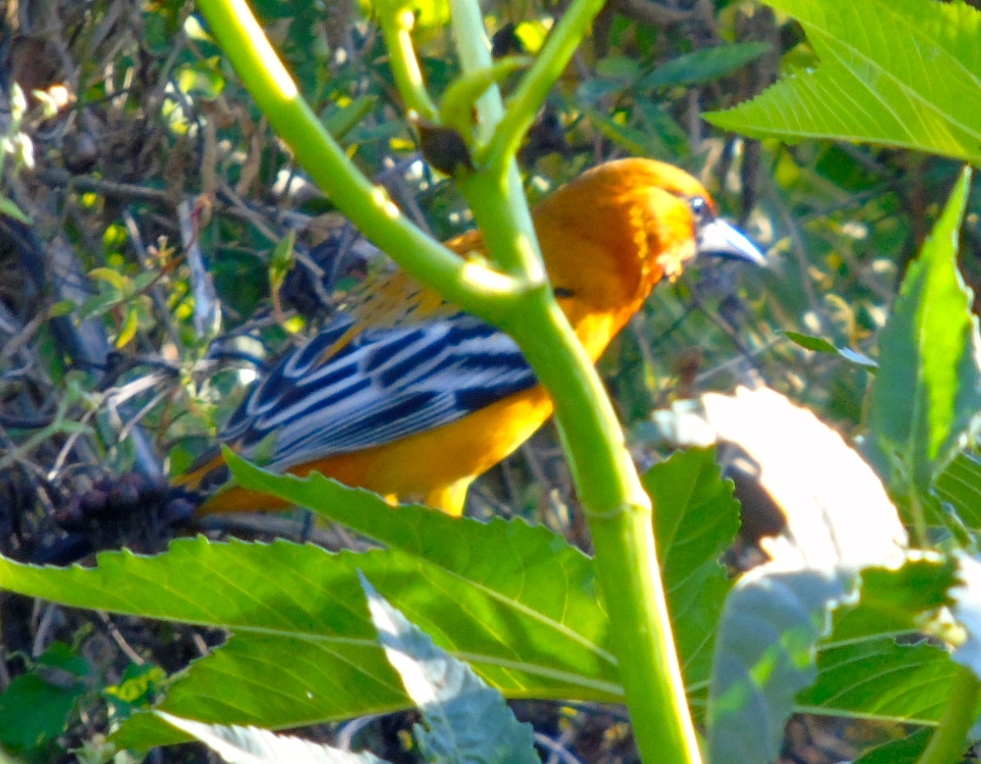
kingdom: Animalia
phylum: Chordata
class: Aves
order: Passeriformes
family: Icteridae
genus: Icterus
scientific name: Icterus pustulatus
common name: Streak-backed oriole
